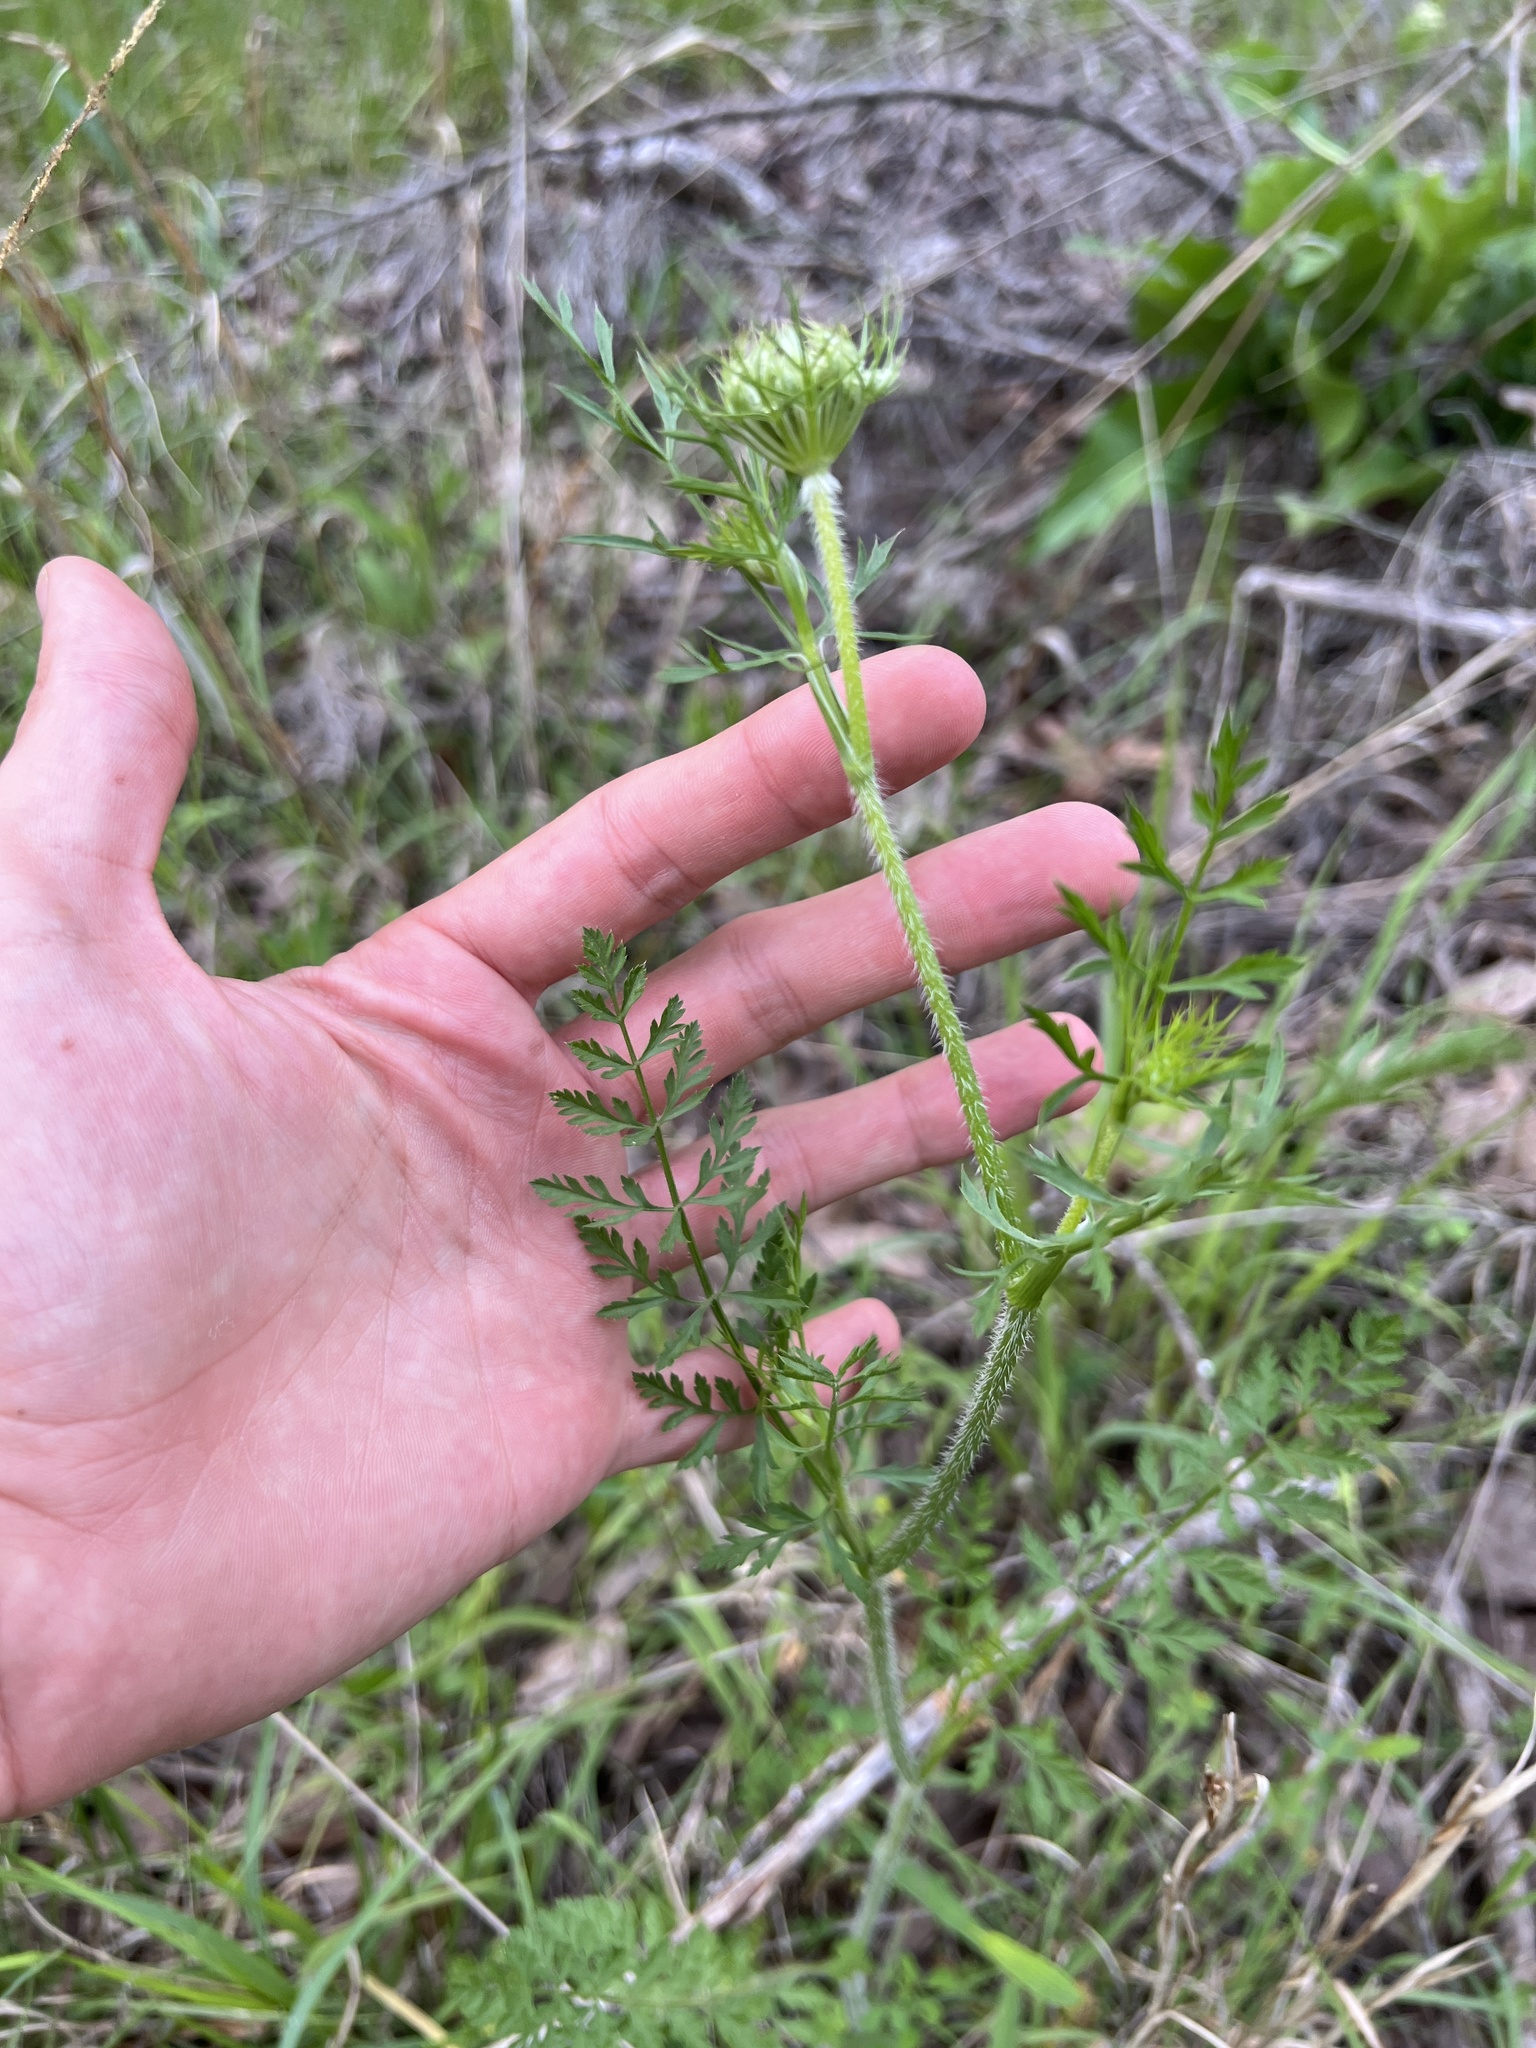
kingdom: Plantae
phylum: Tracheophyta
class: Magnoliopsida
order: Apiales
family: Apiaceae
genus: Daucus
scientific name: Daucus carota
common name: Wild carrot
